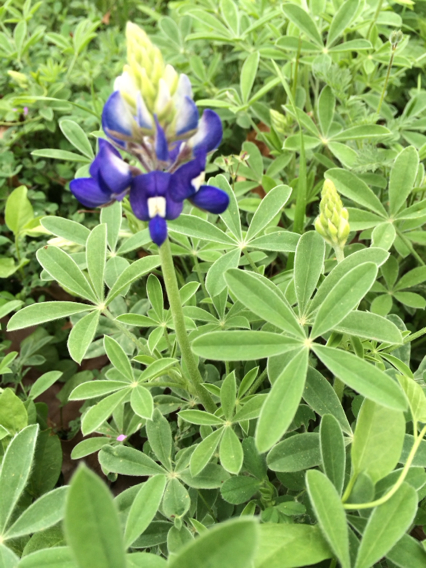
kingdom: Plantae
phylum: Tracheophyta
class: Magnoliopsida
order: Fabales
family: Fabaceae
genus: Lupinus
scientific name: Lupinus texensis
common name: Texas bluebonnet
